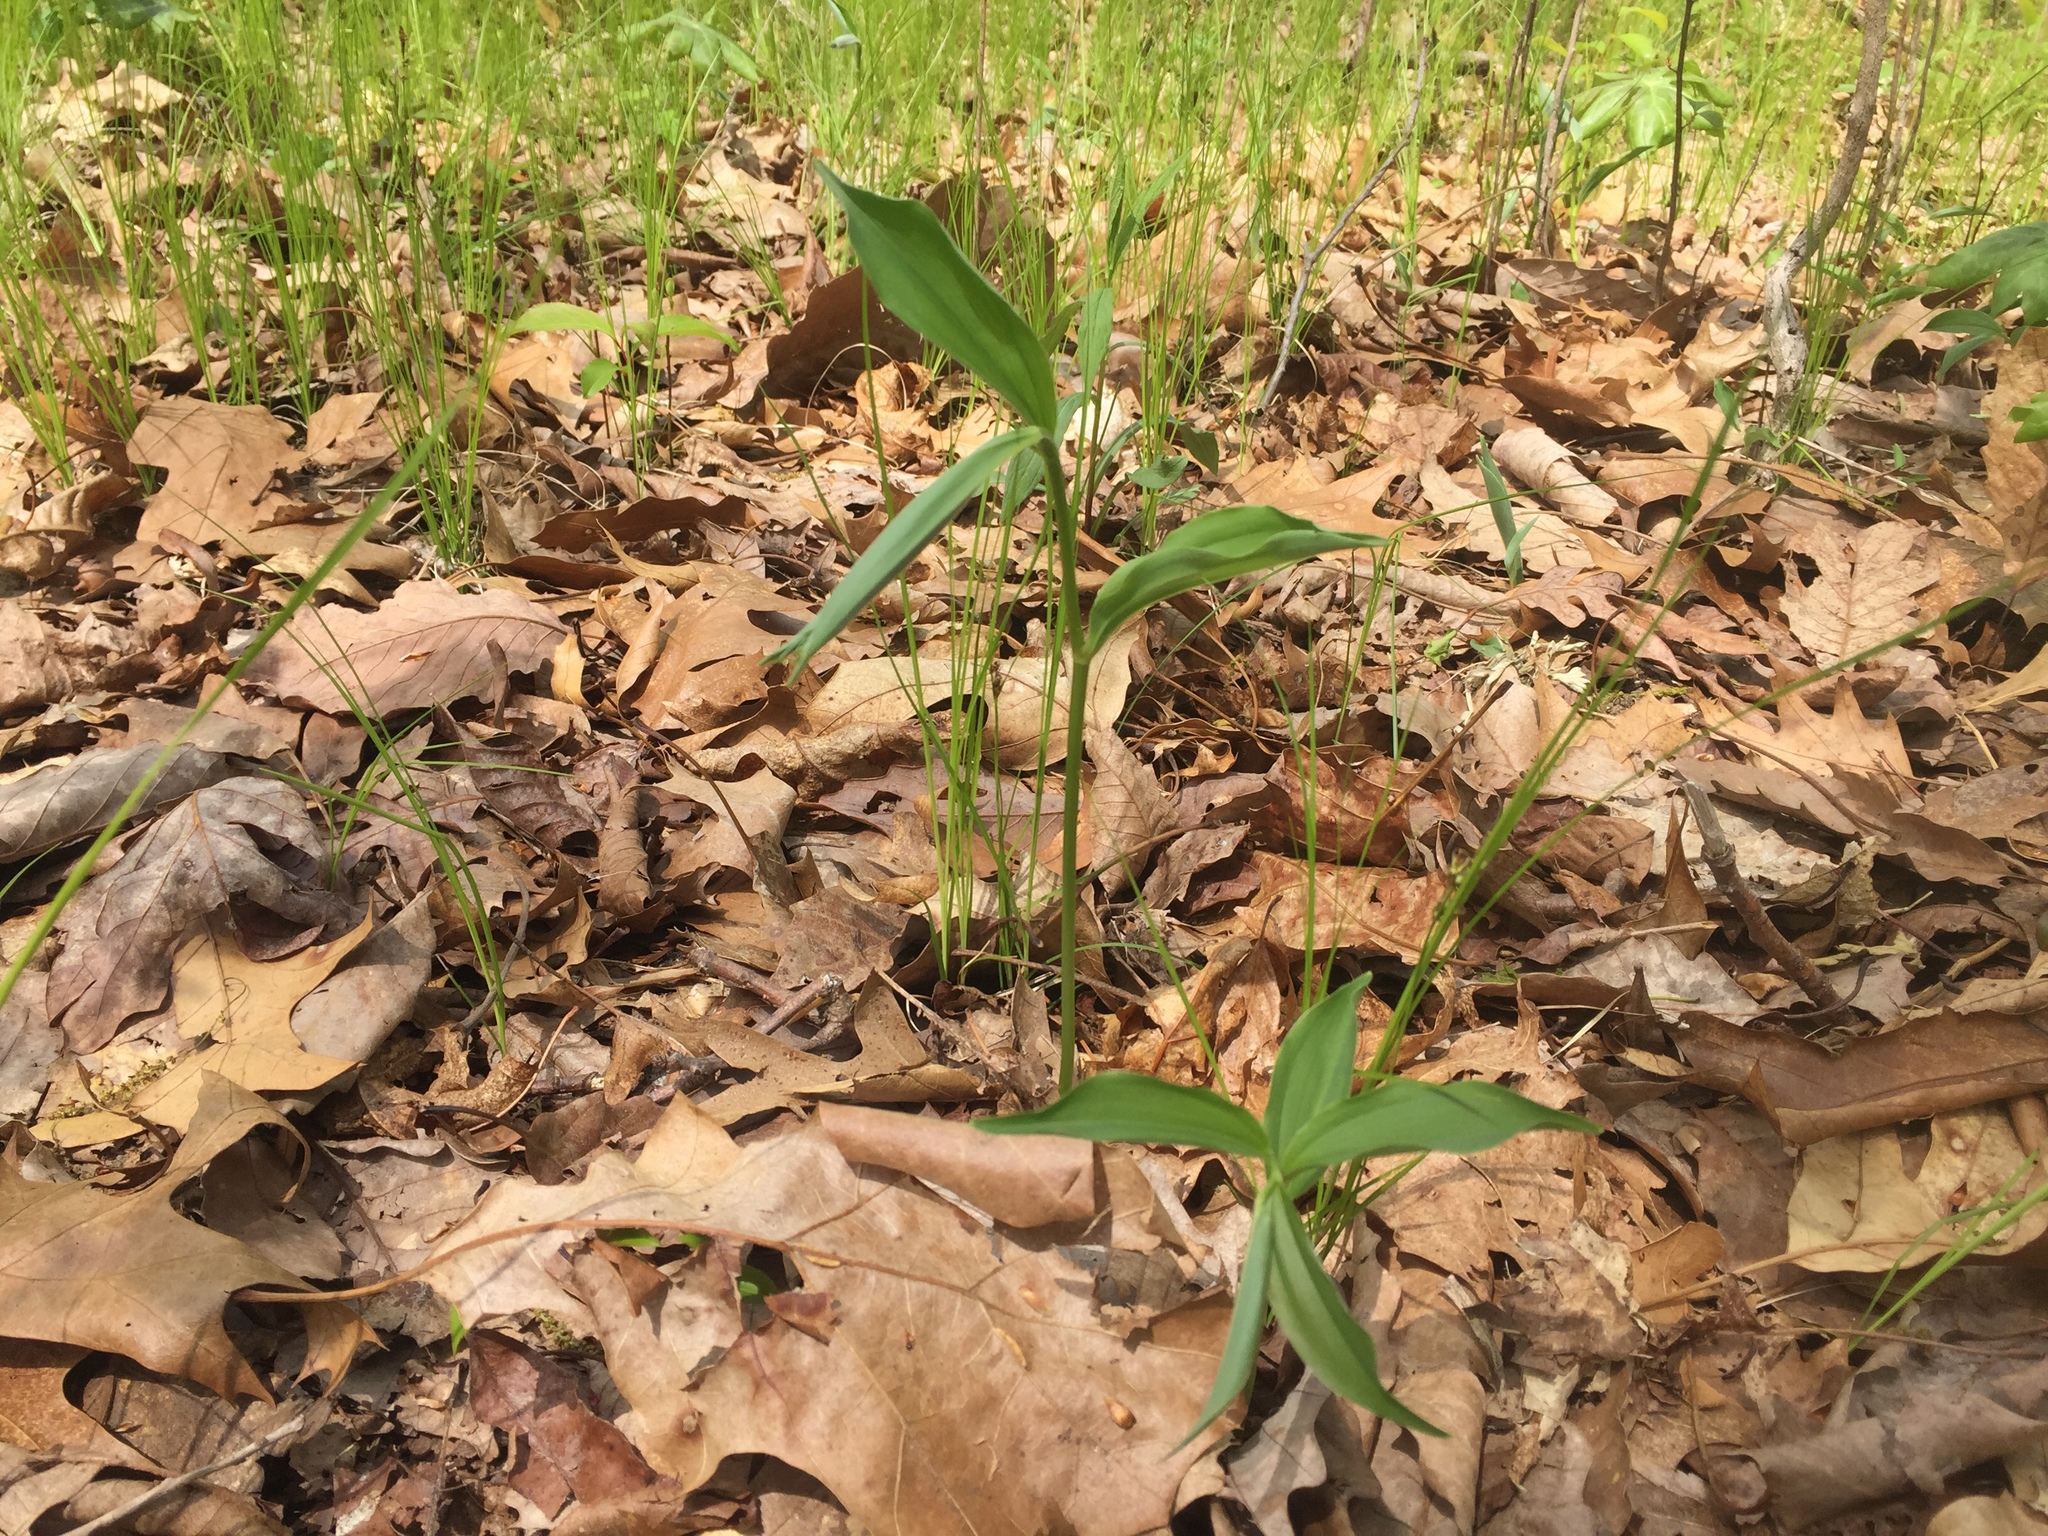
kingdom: Plantae
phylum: Tracheophyta
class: Liliopsida
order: Asparagales
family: Asparagaceae
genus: Maianthemum
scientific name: Maianthemum racemosum
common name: False spikenard
